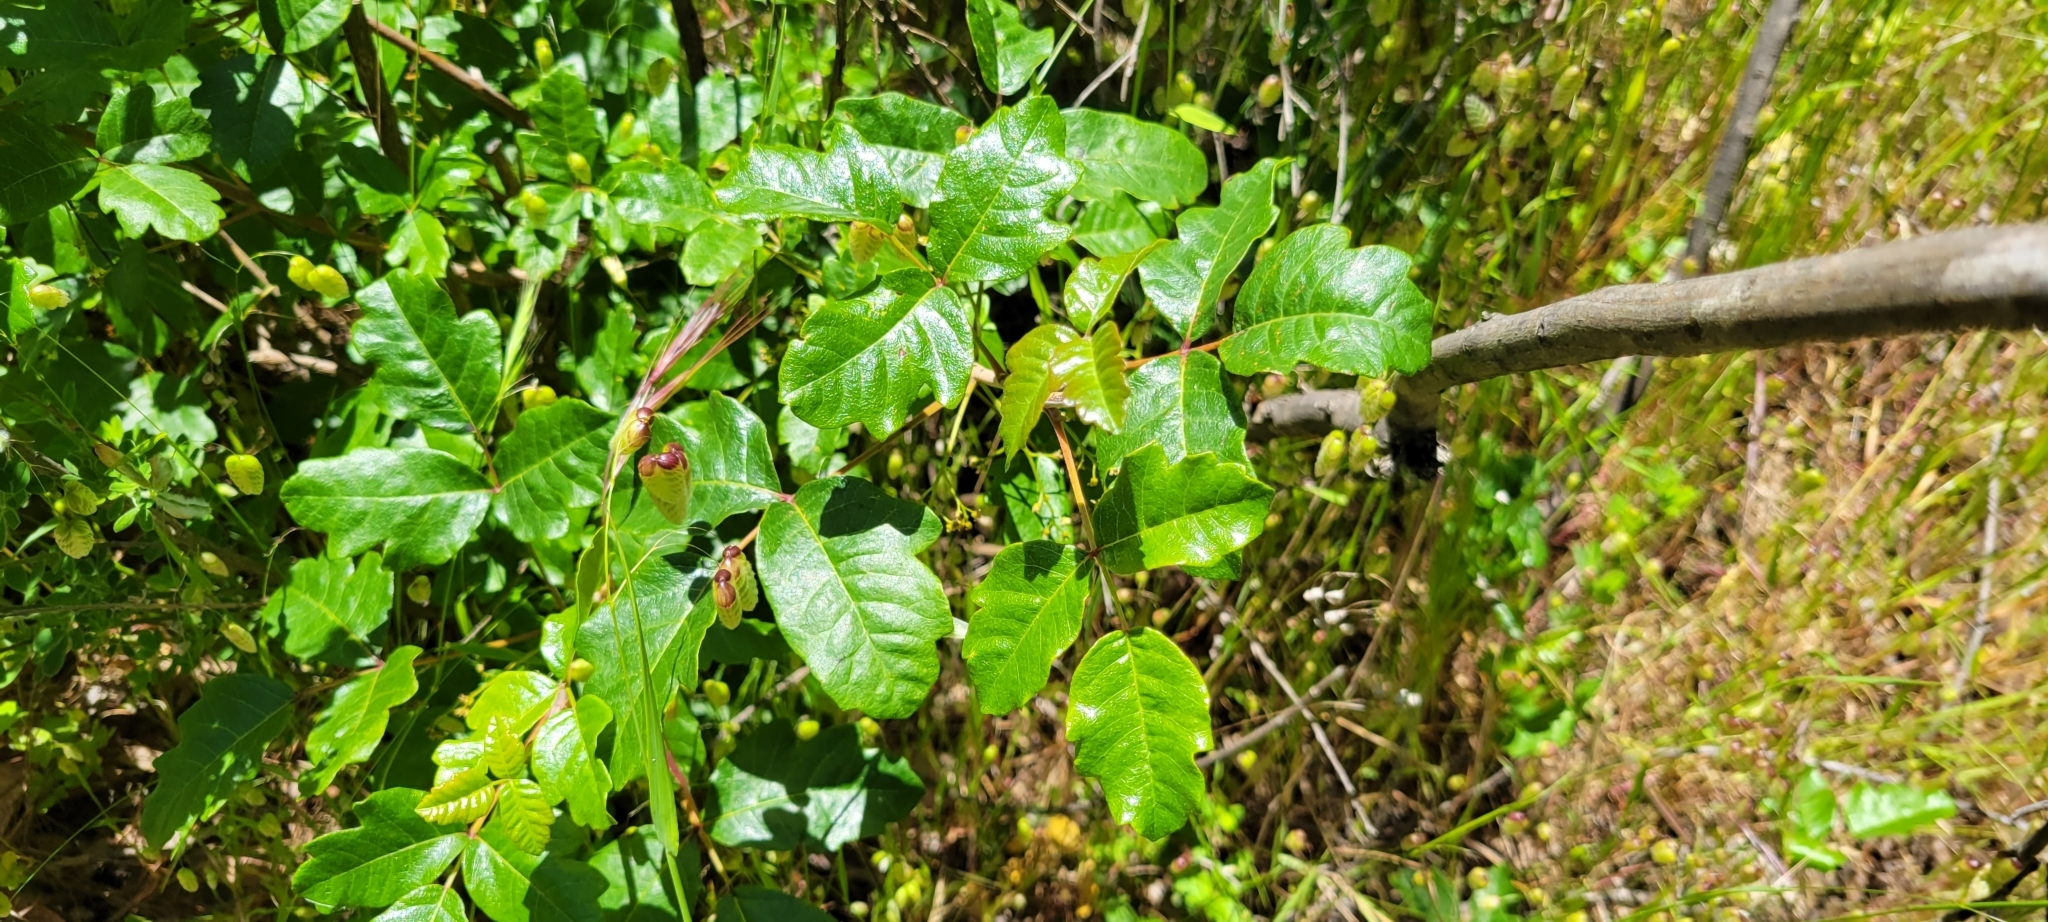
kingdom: Plantae
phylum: Tracheophyta
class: Magnoliopsida
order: Sapindales
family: Anacardiaceae
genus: Toxicodendron
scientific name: Toxicodendron diversilobum
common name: Pacific poison-oak
